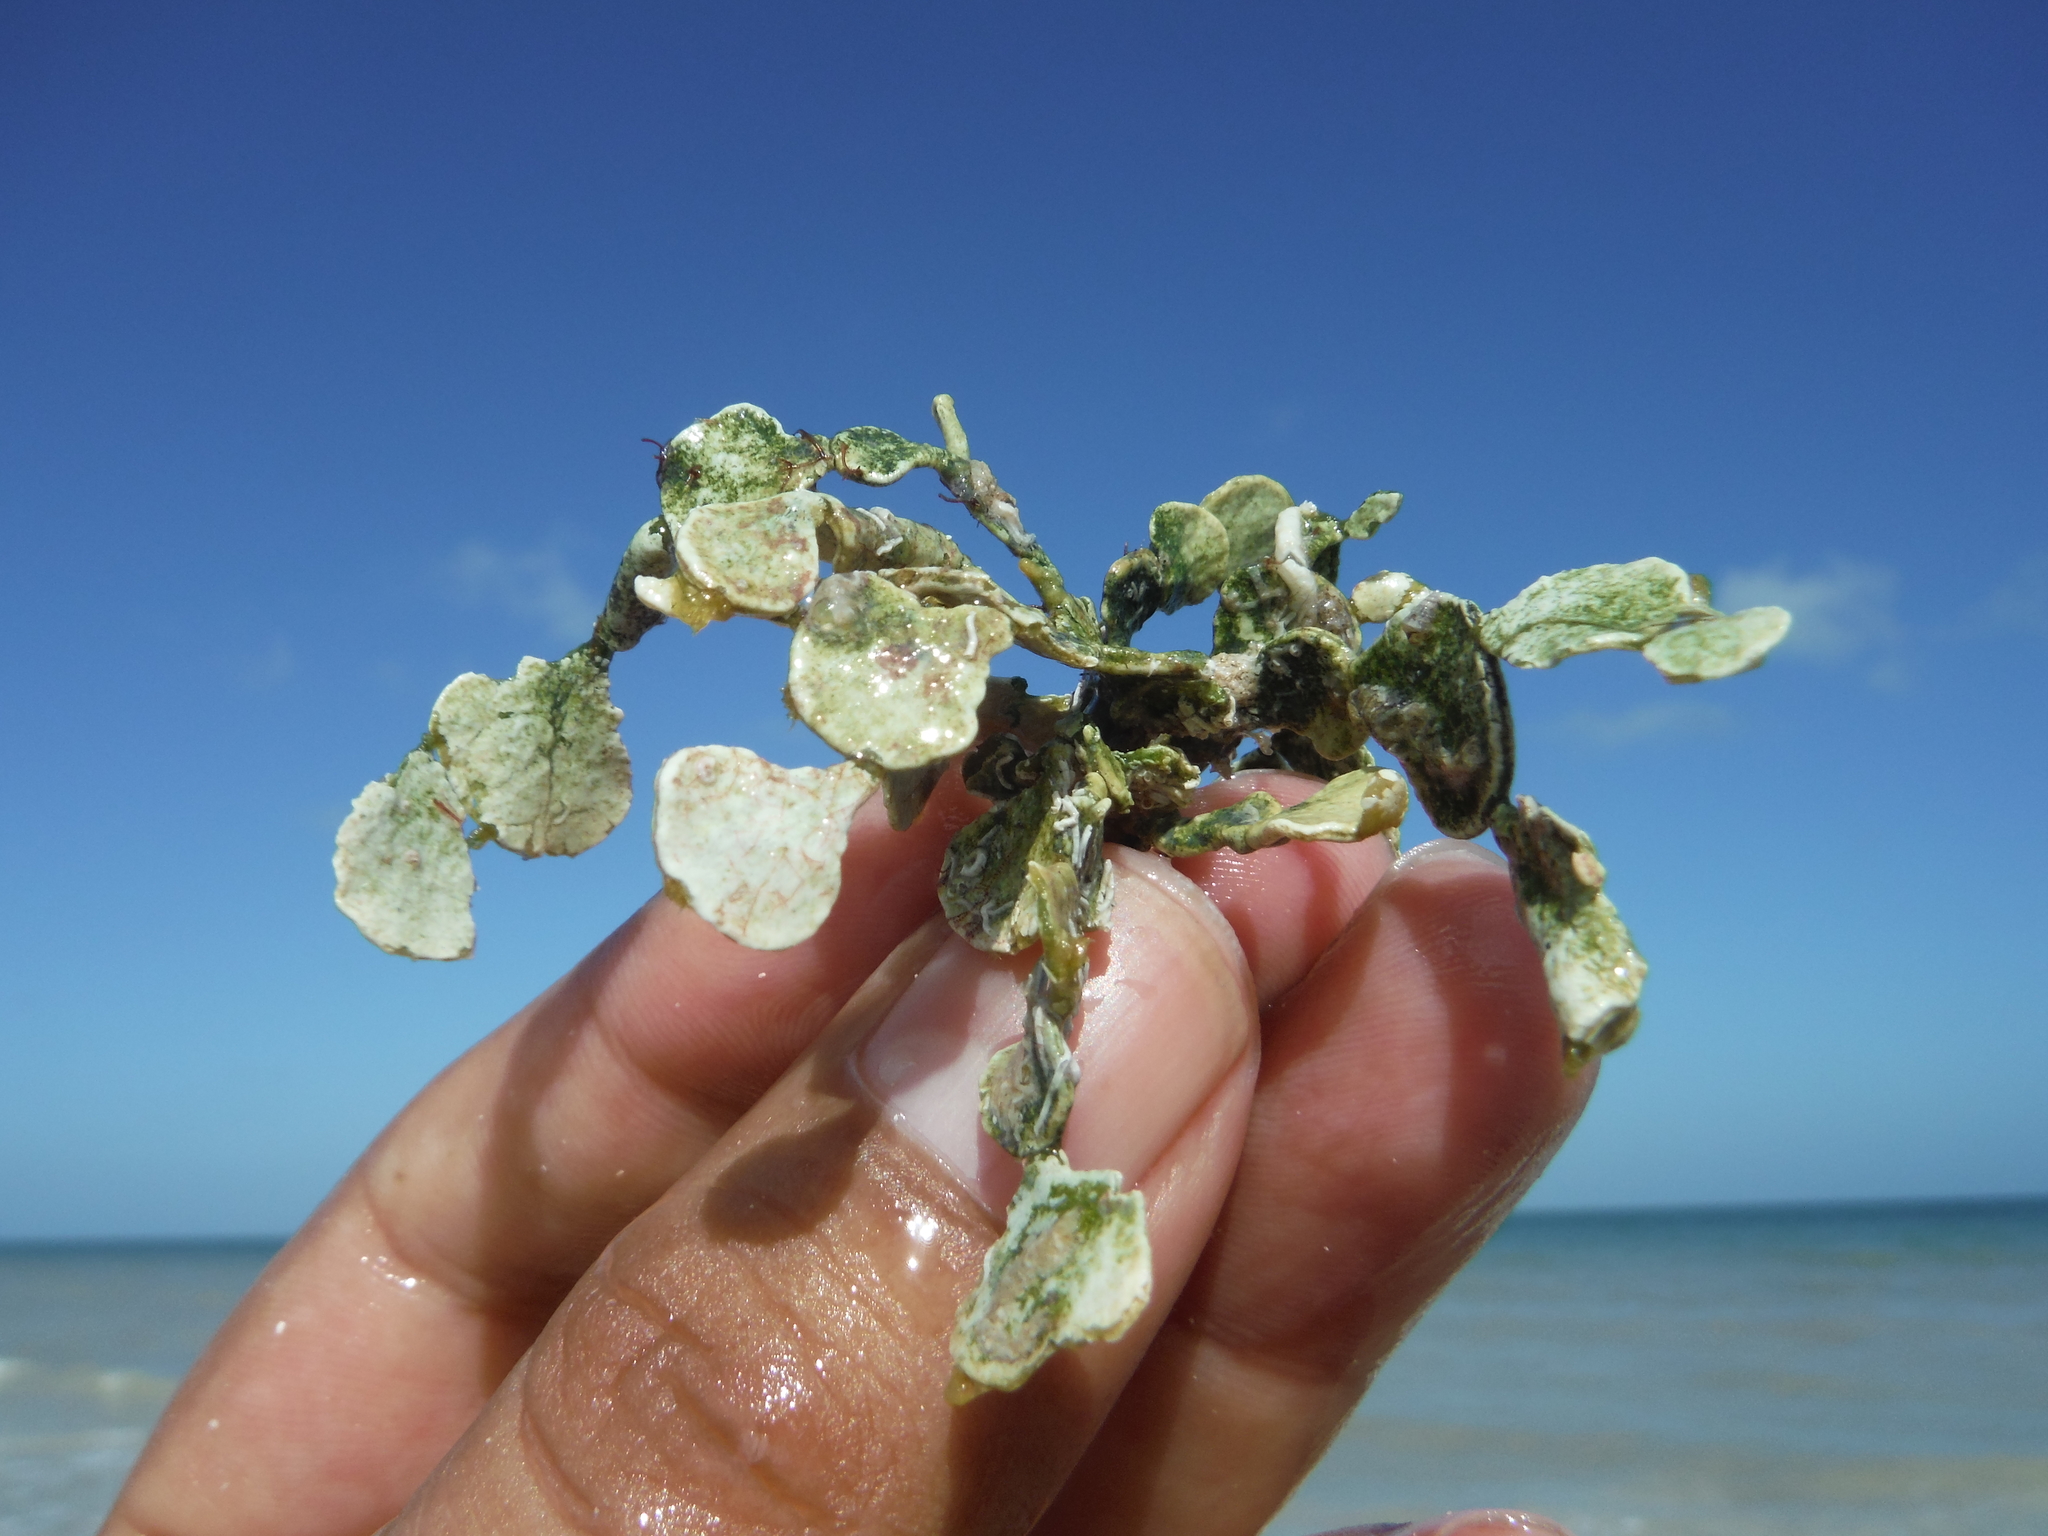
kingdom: Plantae
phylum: Chlorophyta
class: Ulvophyceae
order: Bryopsidales
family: Halimedaceae
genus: Halimeda
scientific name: Halimeda opuntia
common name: Watercress algae
